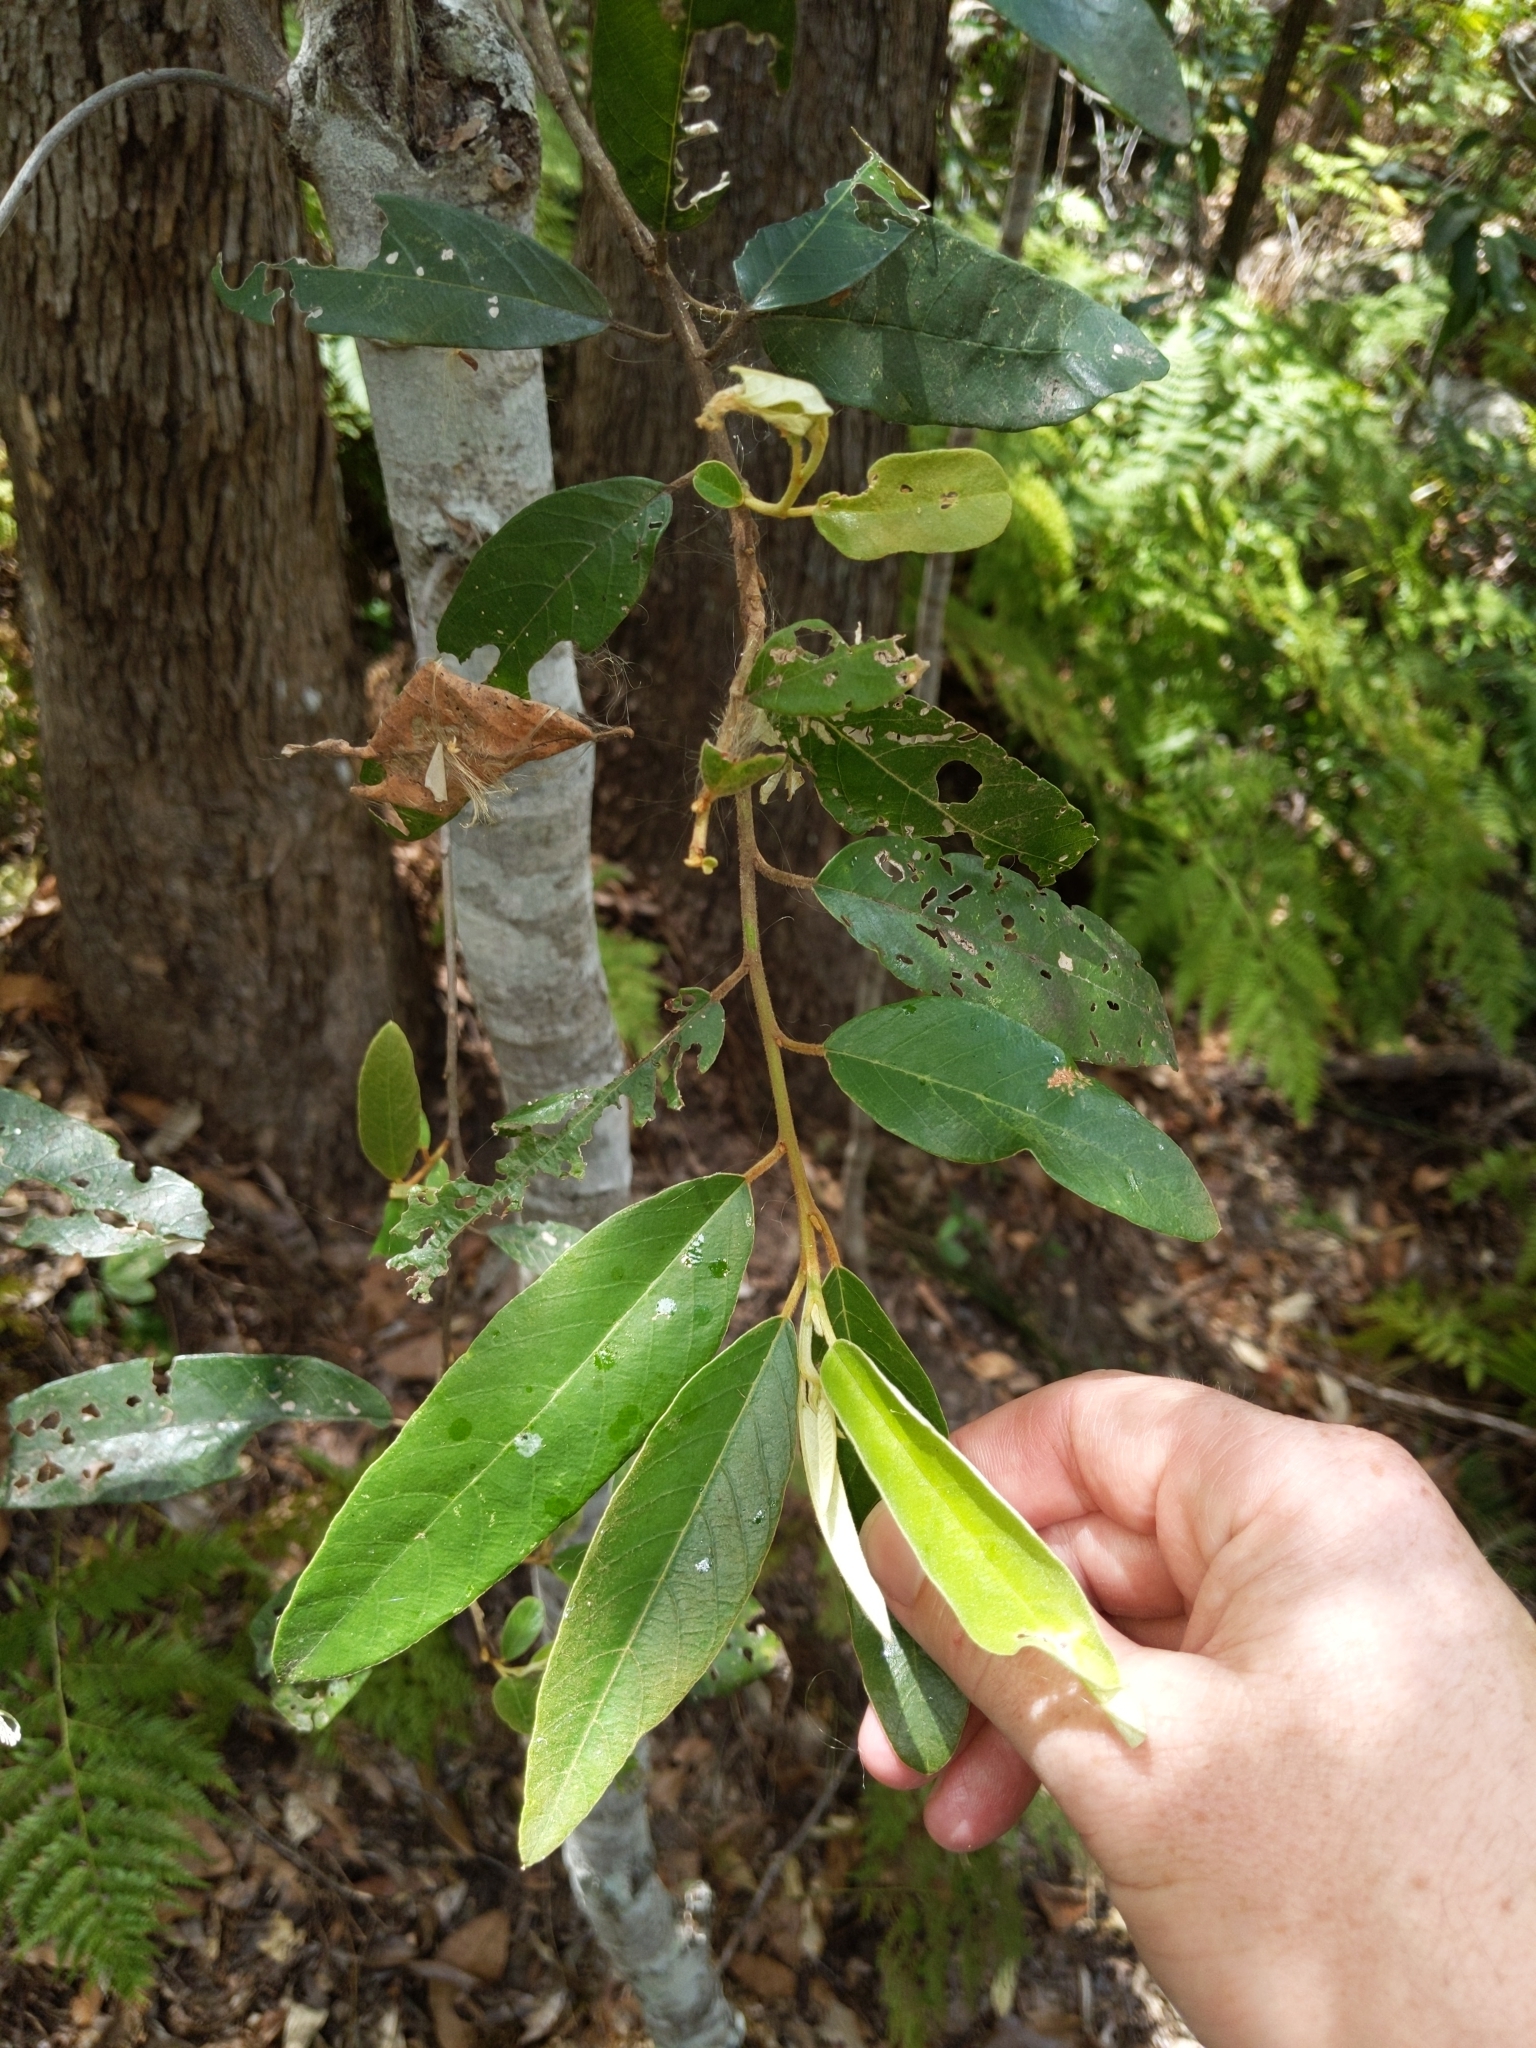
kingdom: Plantae
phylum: Tracheophyta
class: Magnoliopsida
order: Rosales
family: Rhamnaceae
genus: Alphitonia
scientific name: Alphitonia excelsa
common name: Red ash
